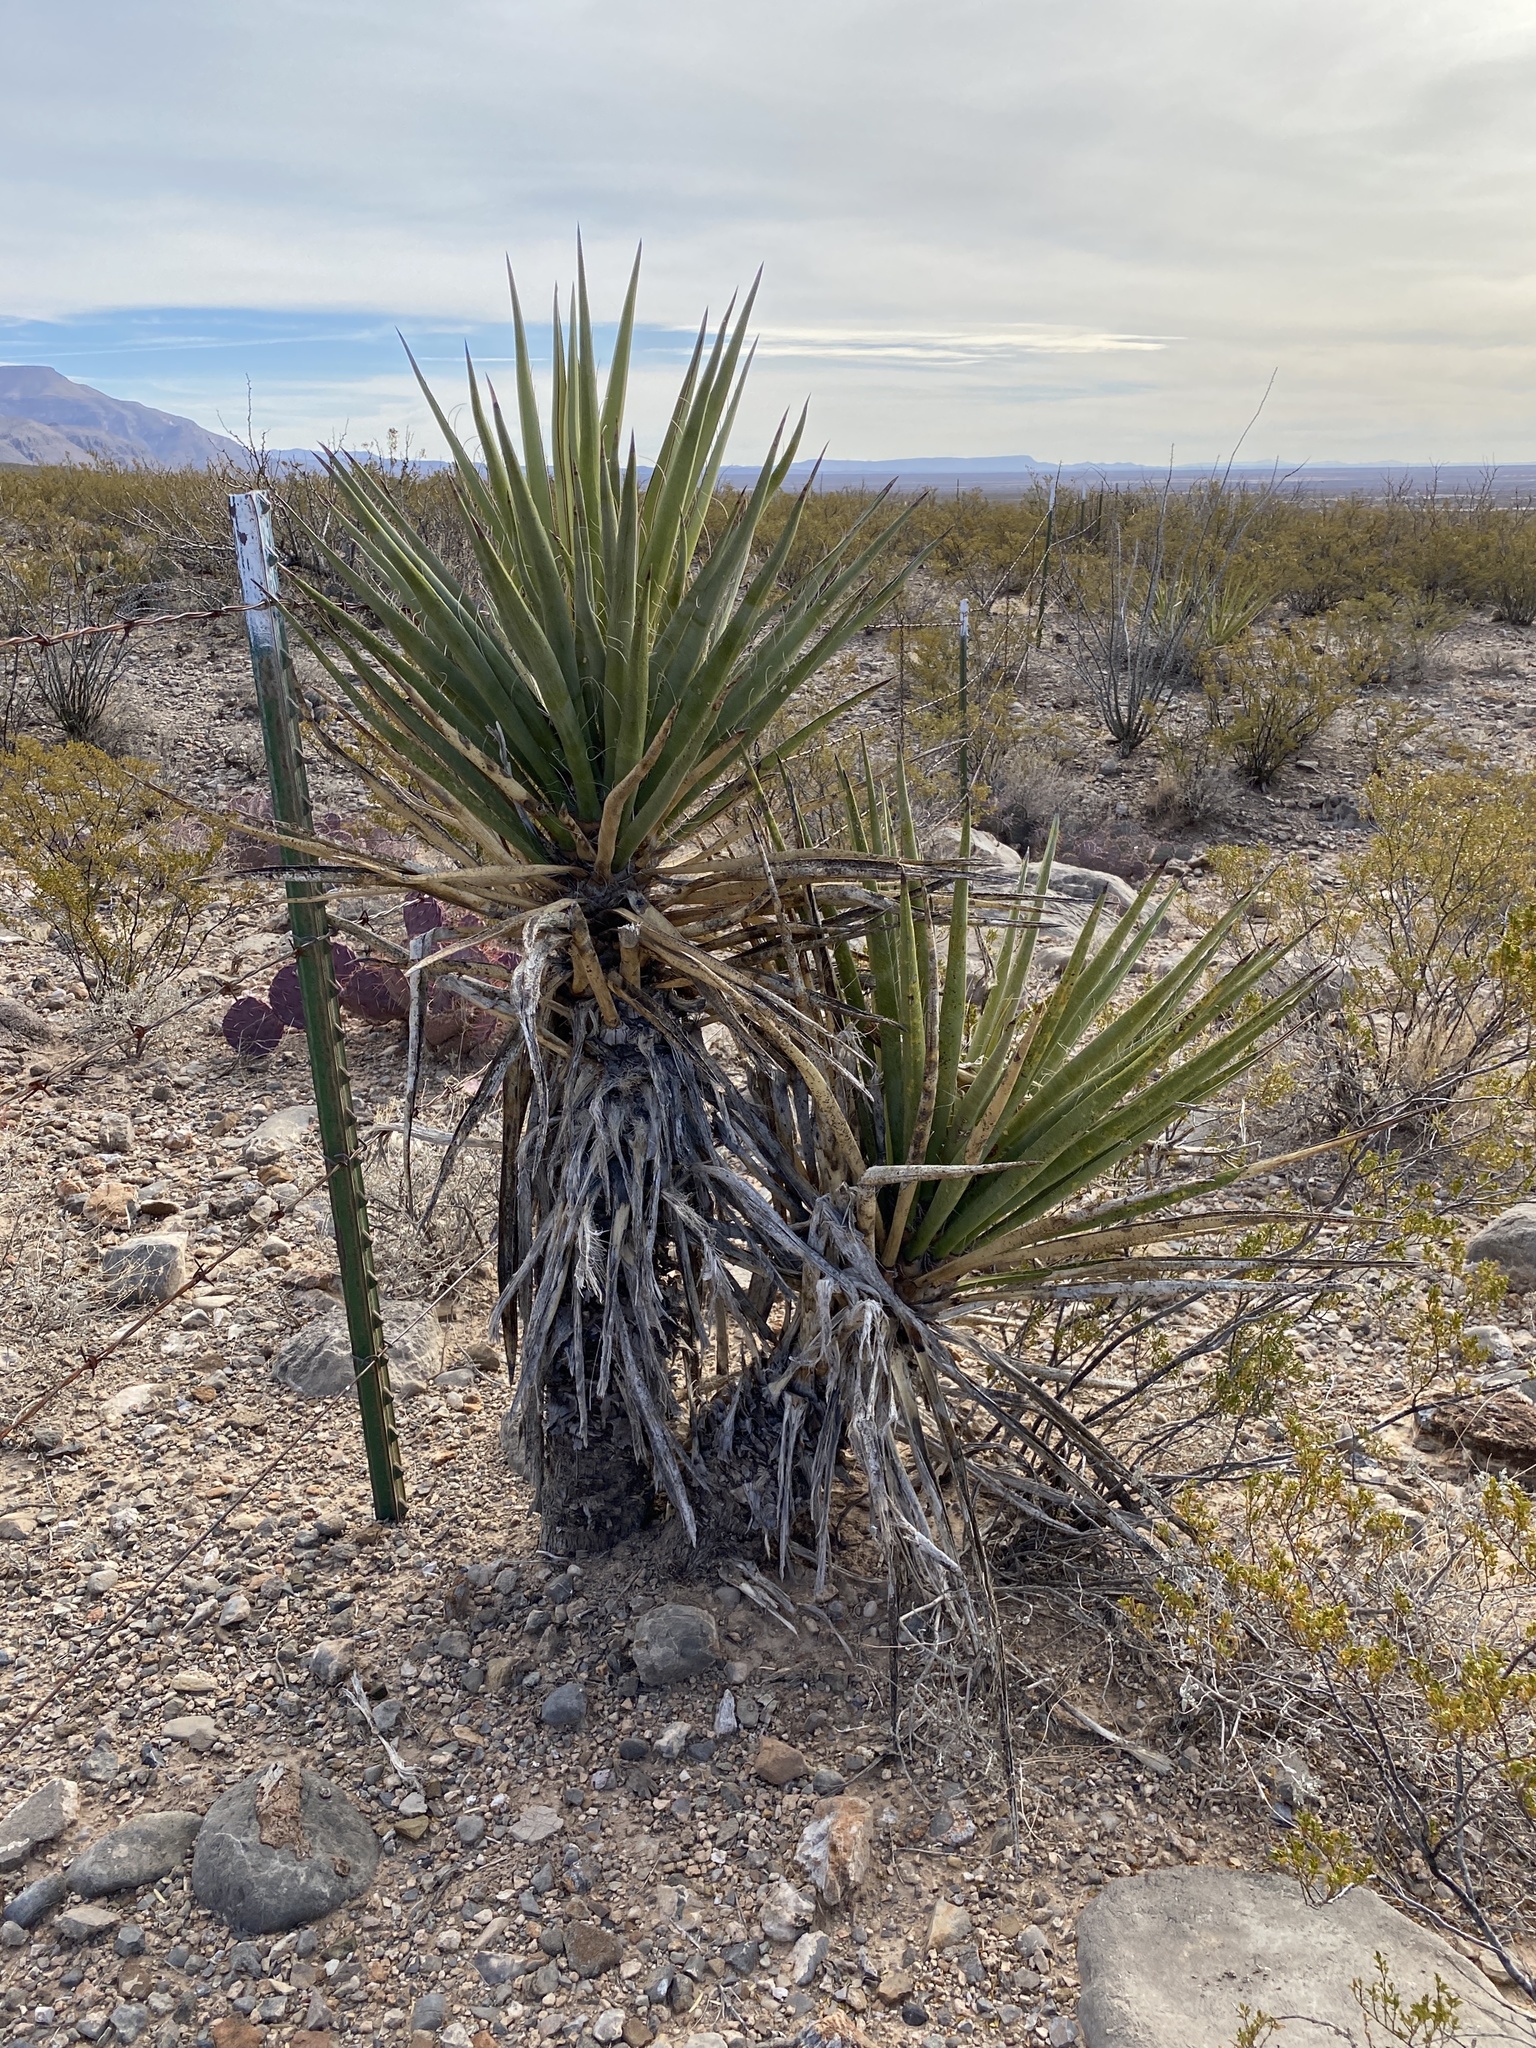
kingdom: Plantae
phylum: Tracheophyta
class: Liliopsida
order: Asparagales
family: Asparagaceae
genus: Yucca
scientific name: Yucca treculiana
